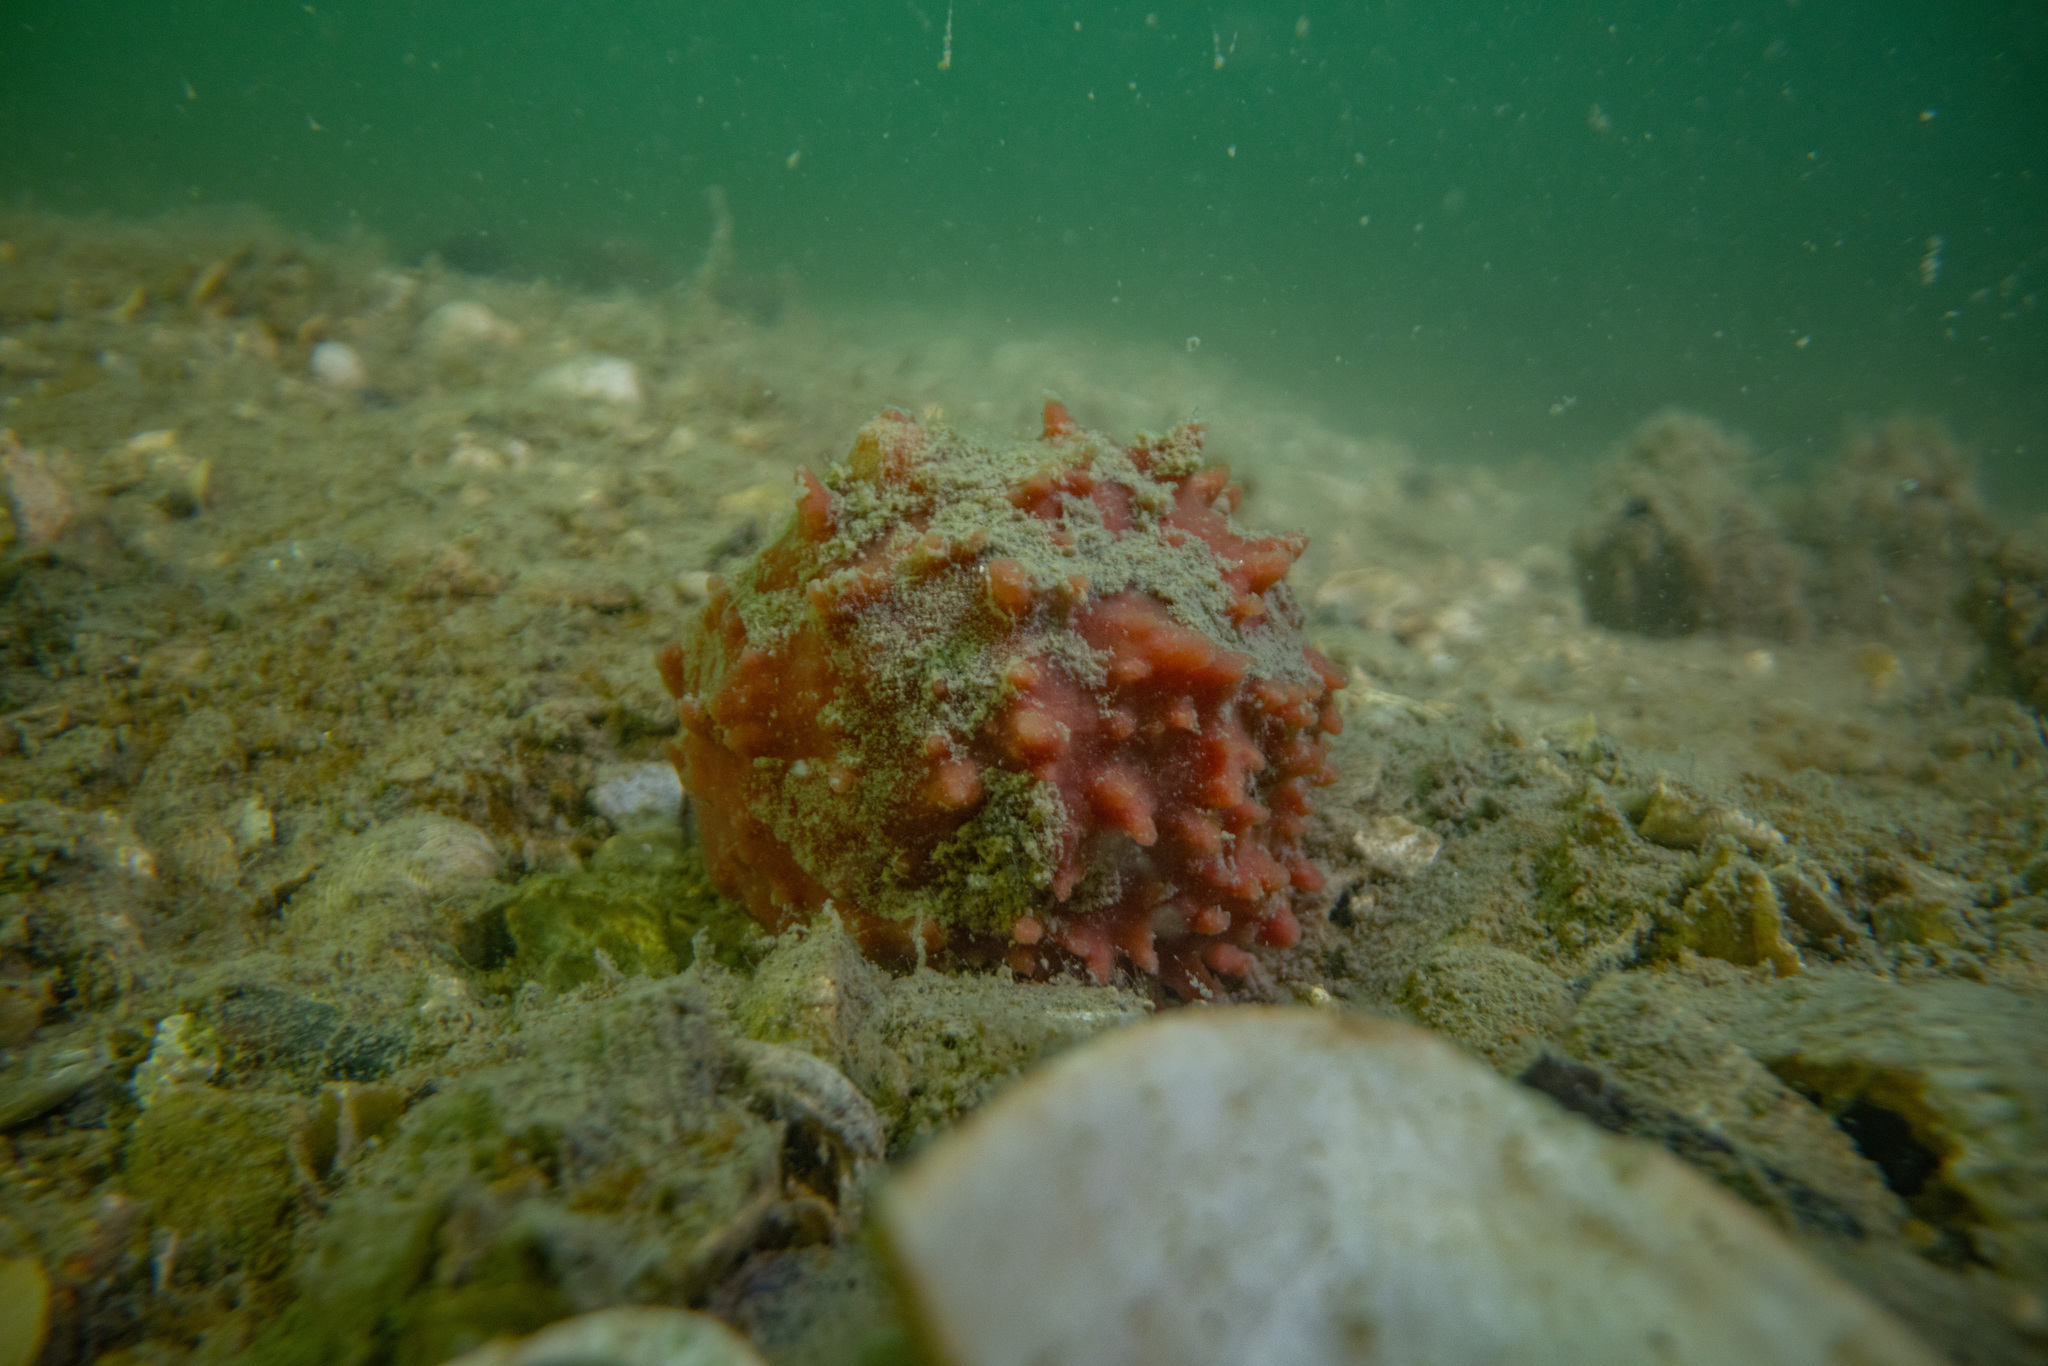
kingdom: Animalia
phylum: Porifera
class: Demospongiae
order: Suberitida
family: Suberitidae
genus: Aaptos
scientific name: Aaptos tenta
